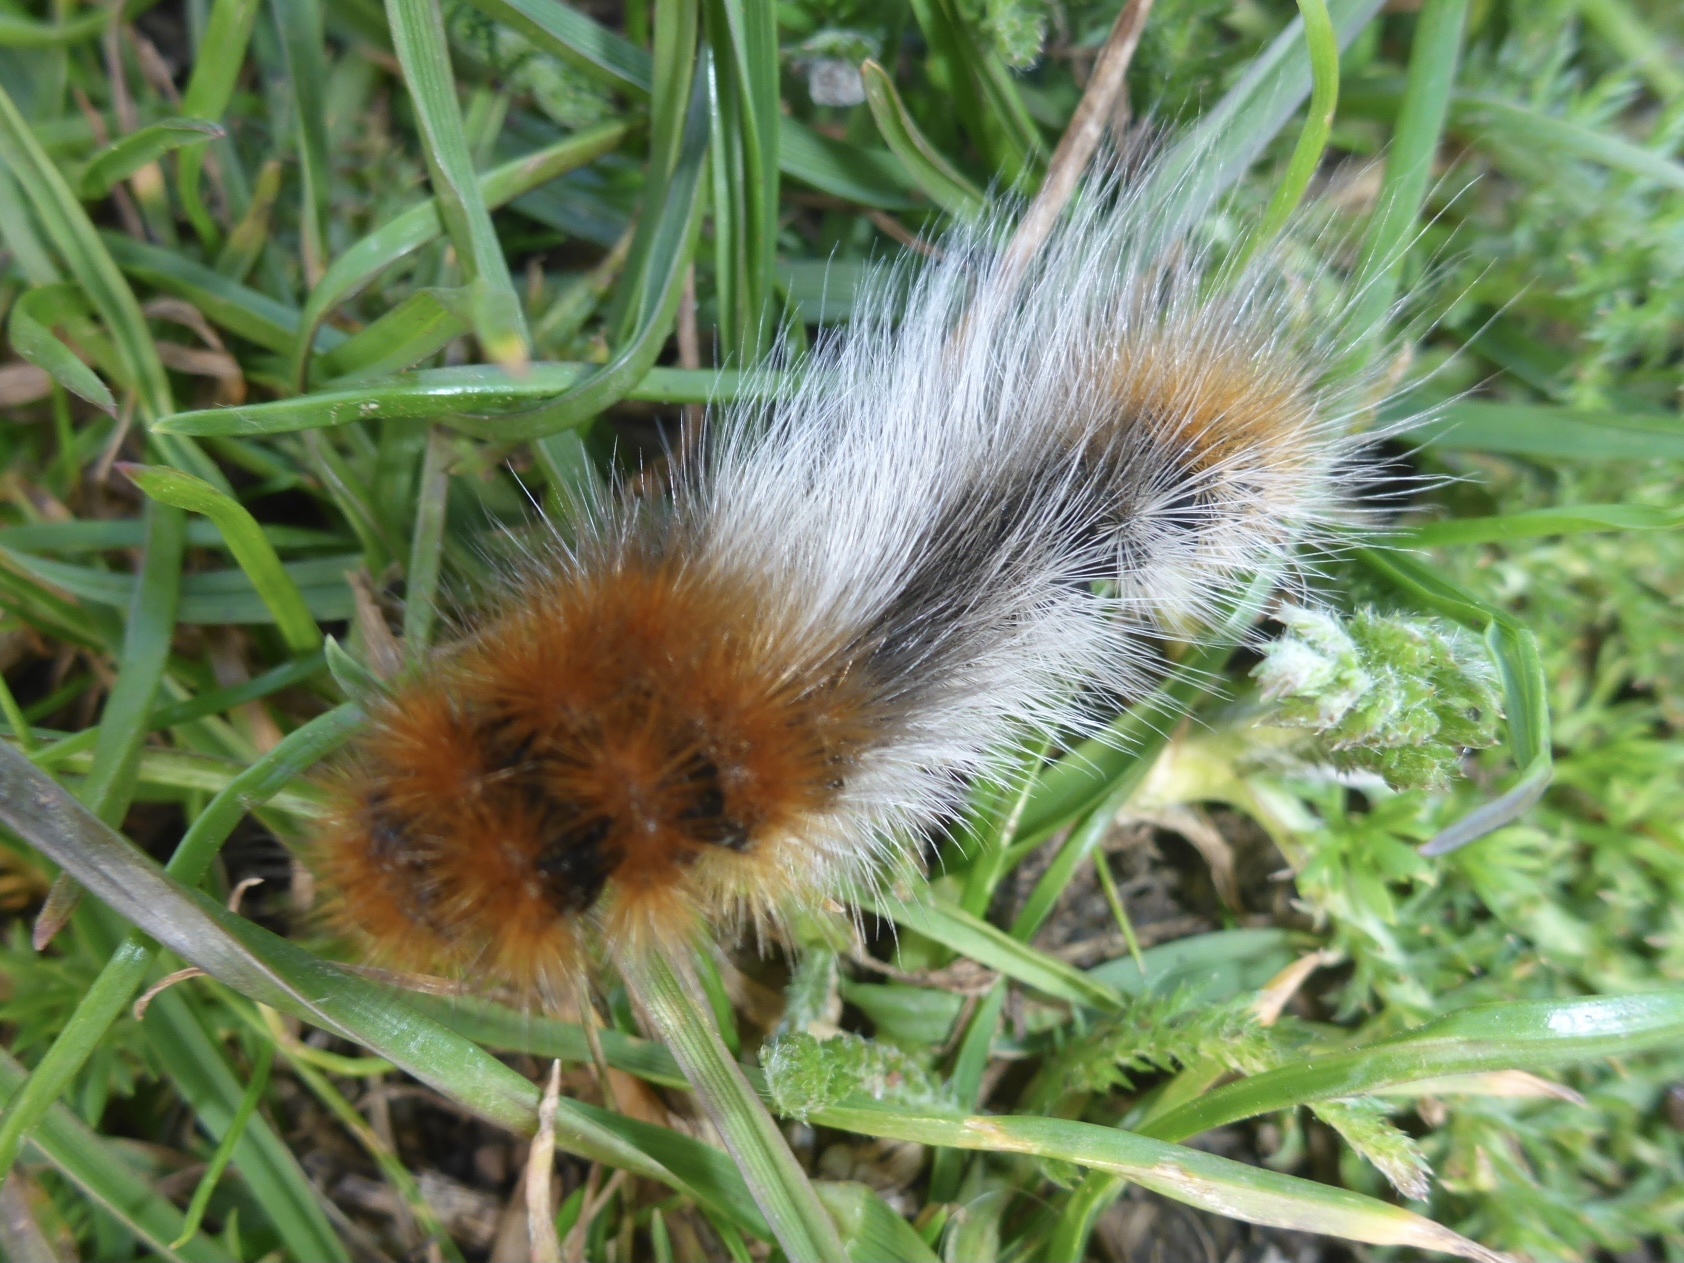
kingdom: Animalia
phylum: Arthropoda
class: Insecta
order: Lepidoptera
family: Erebidae
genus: Arctia
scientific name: Arctia tigrina
